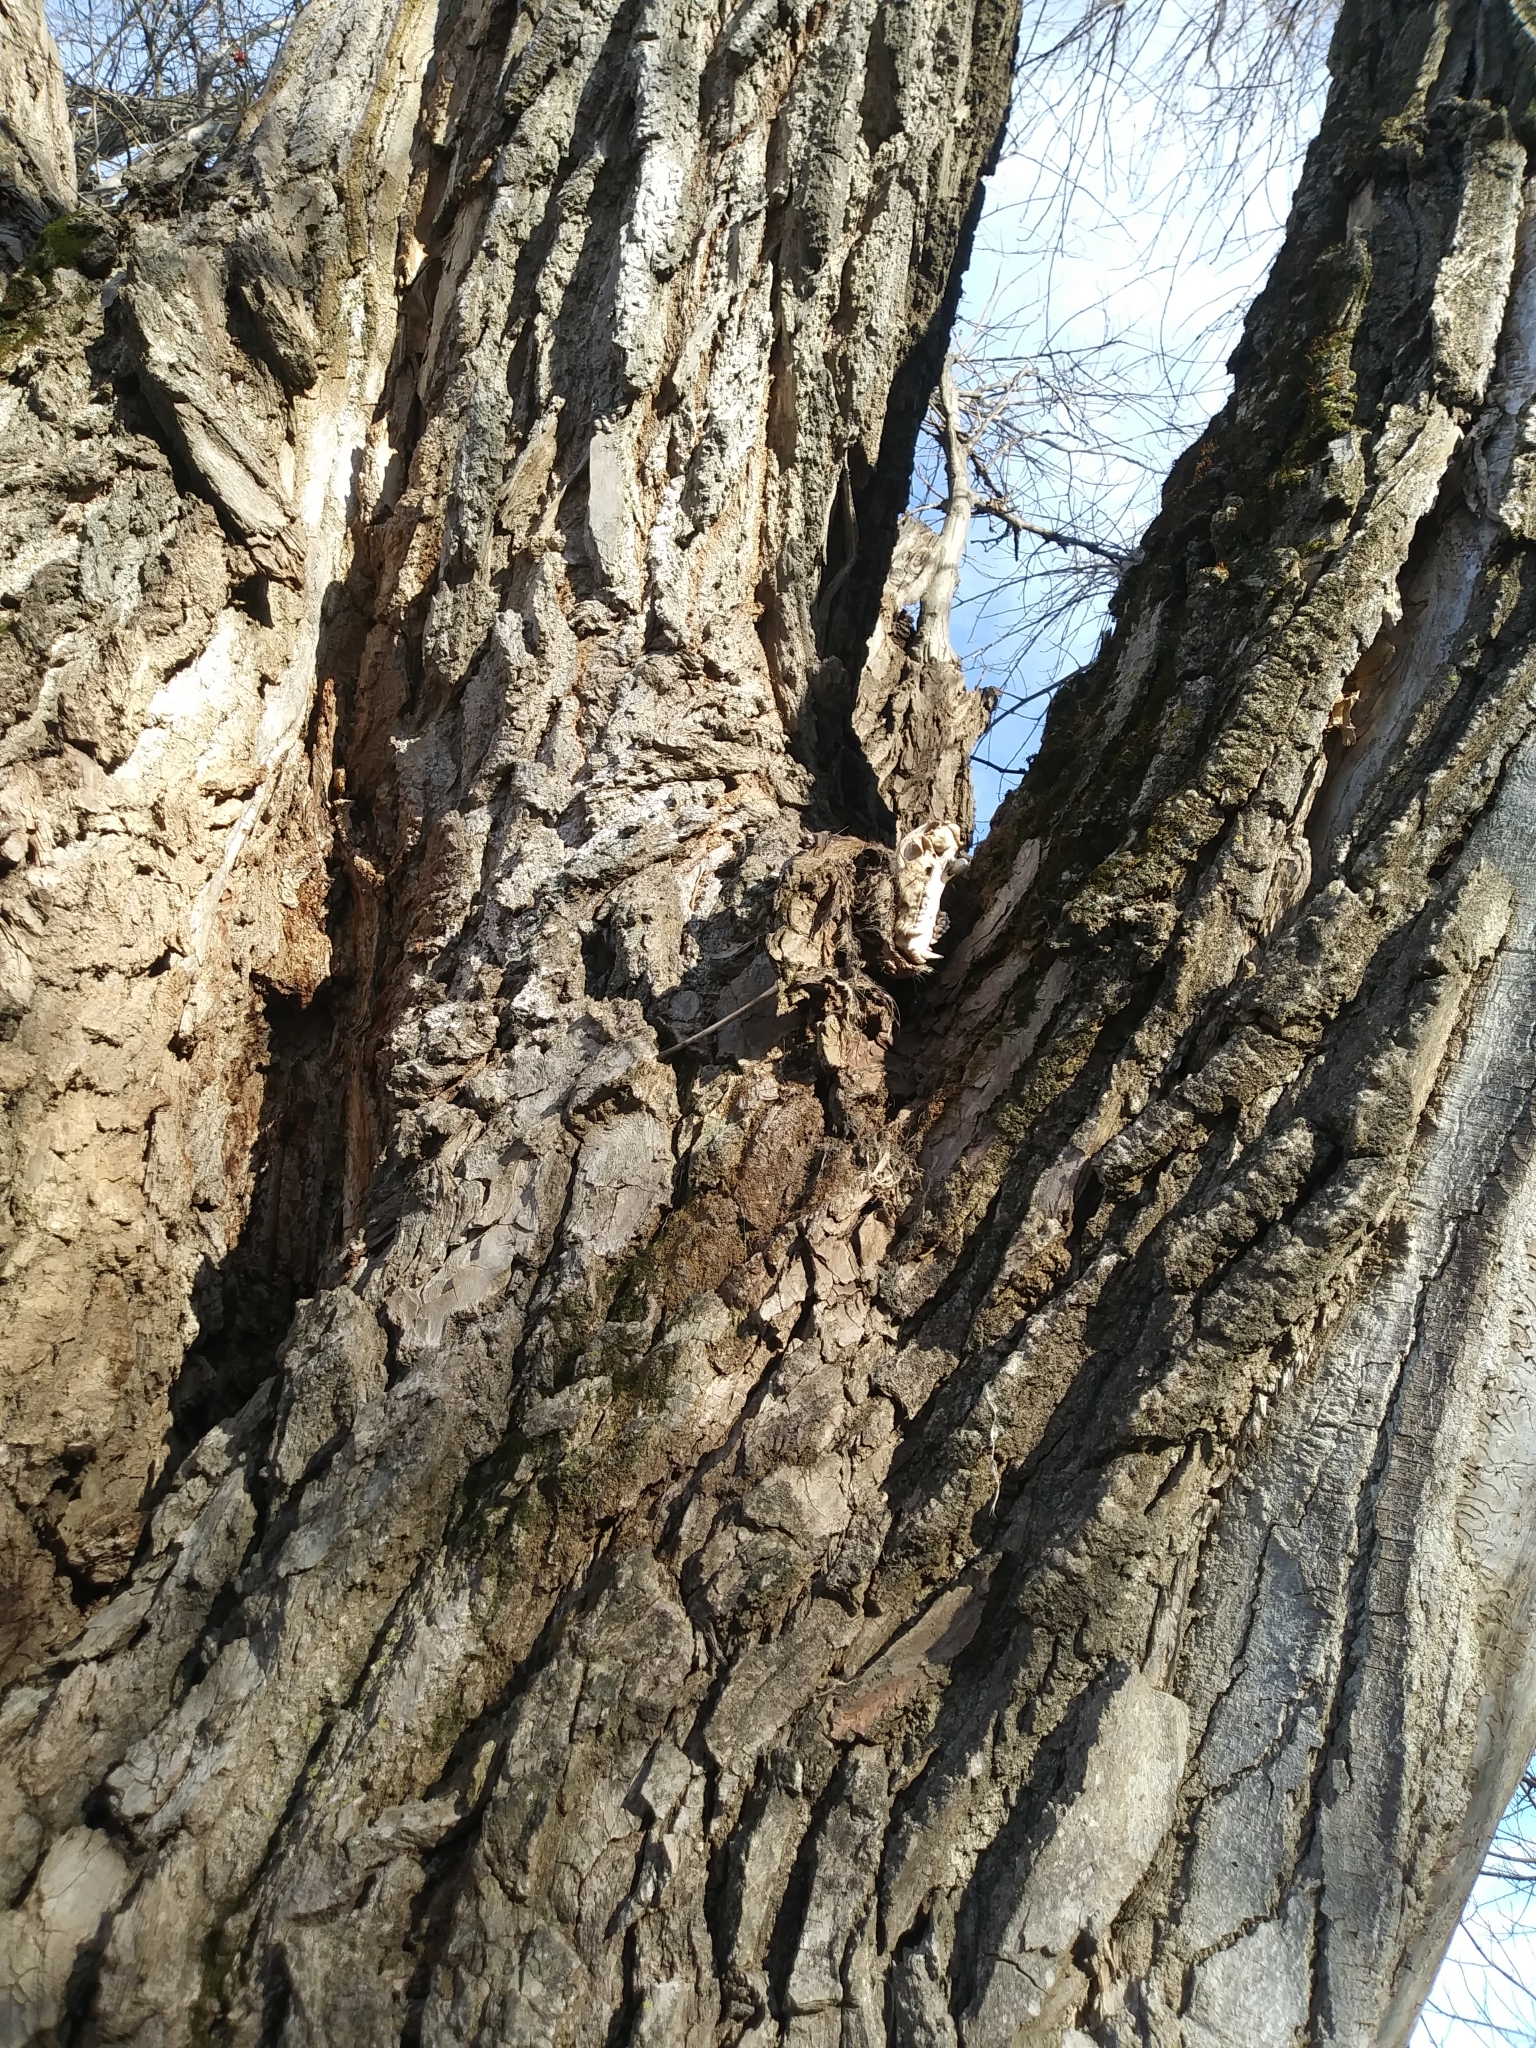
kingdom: Animalia
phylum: Chordata
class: Mammalia
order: Carnivora
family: Procyonidae
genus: Procyon
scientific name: Procyon lotor
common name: Raccoon
